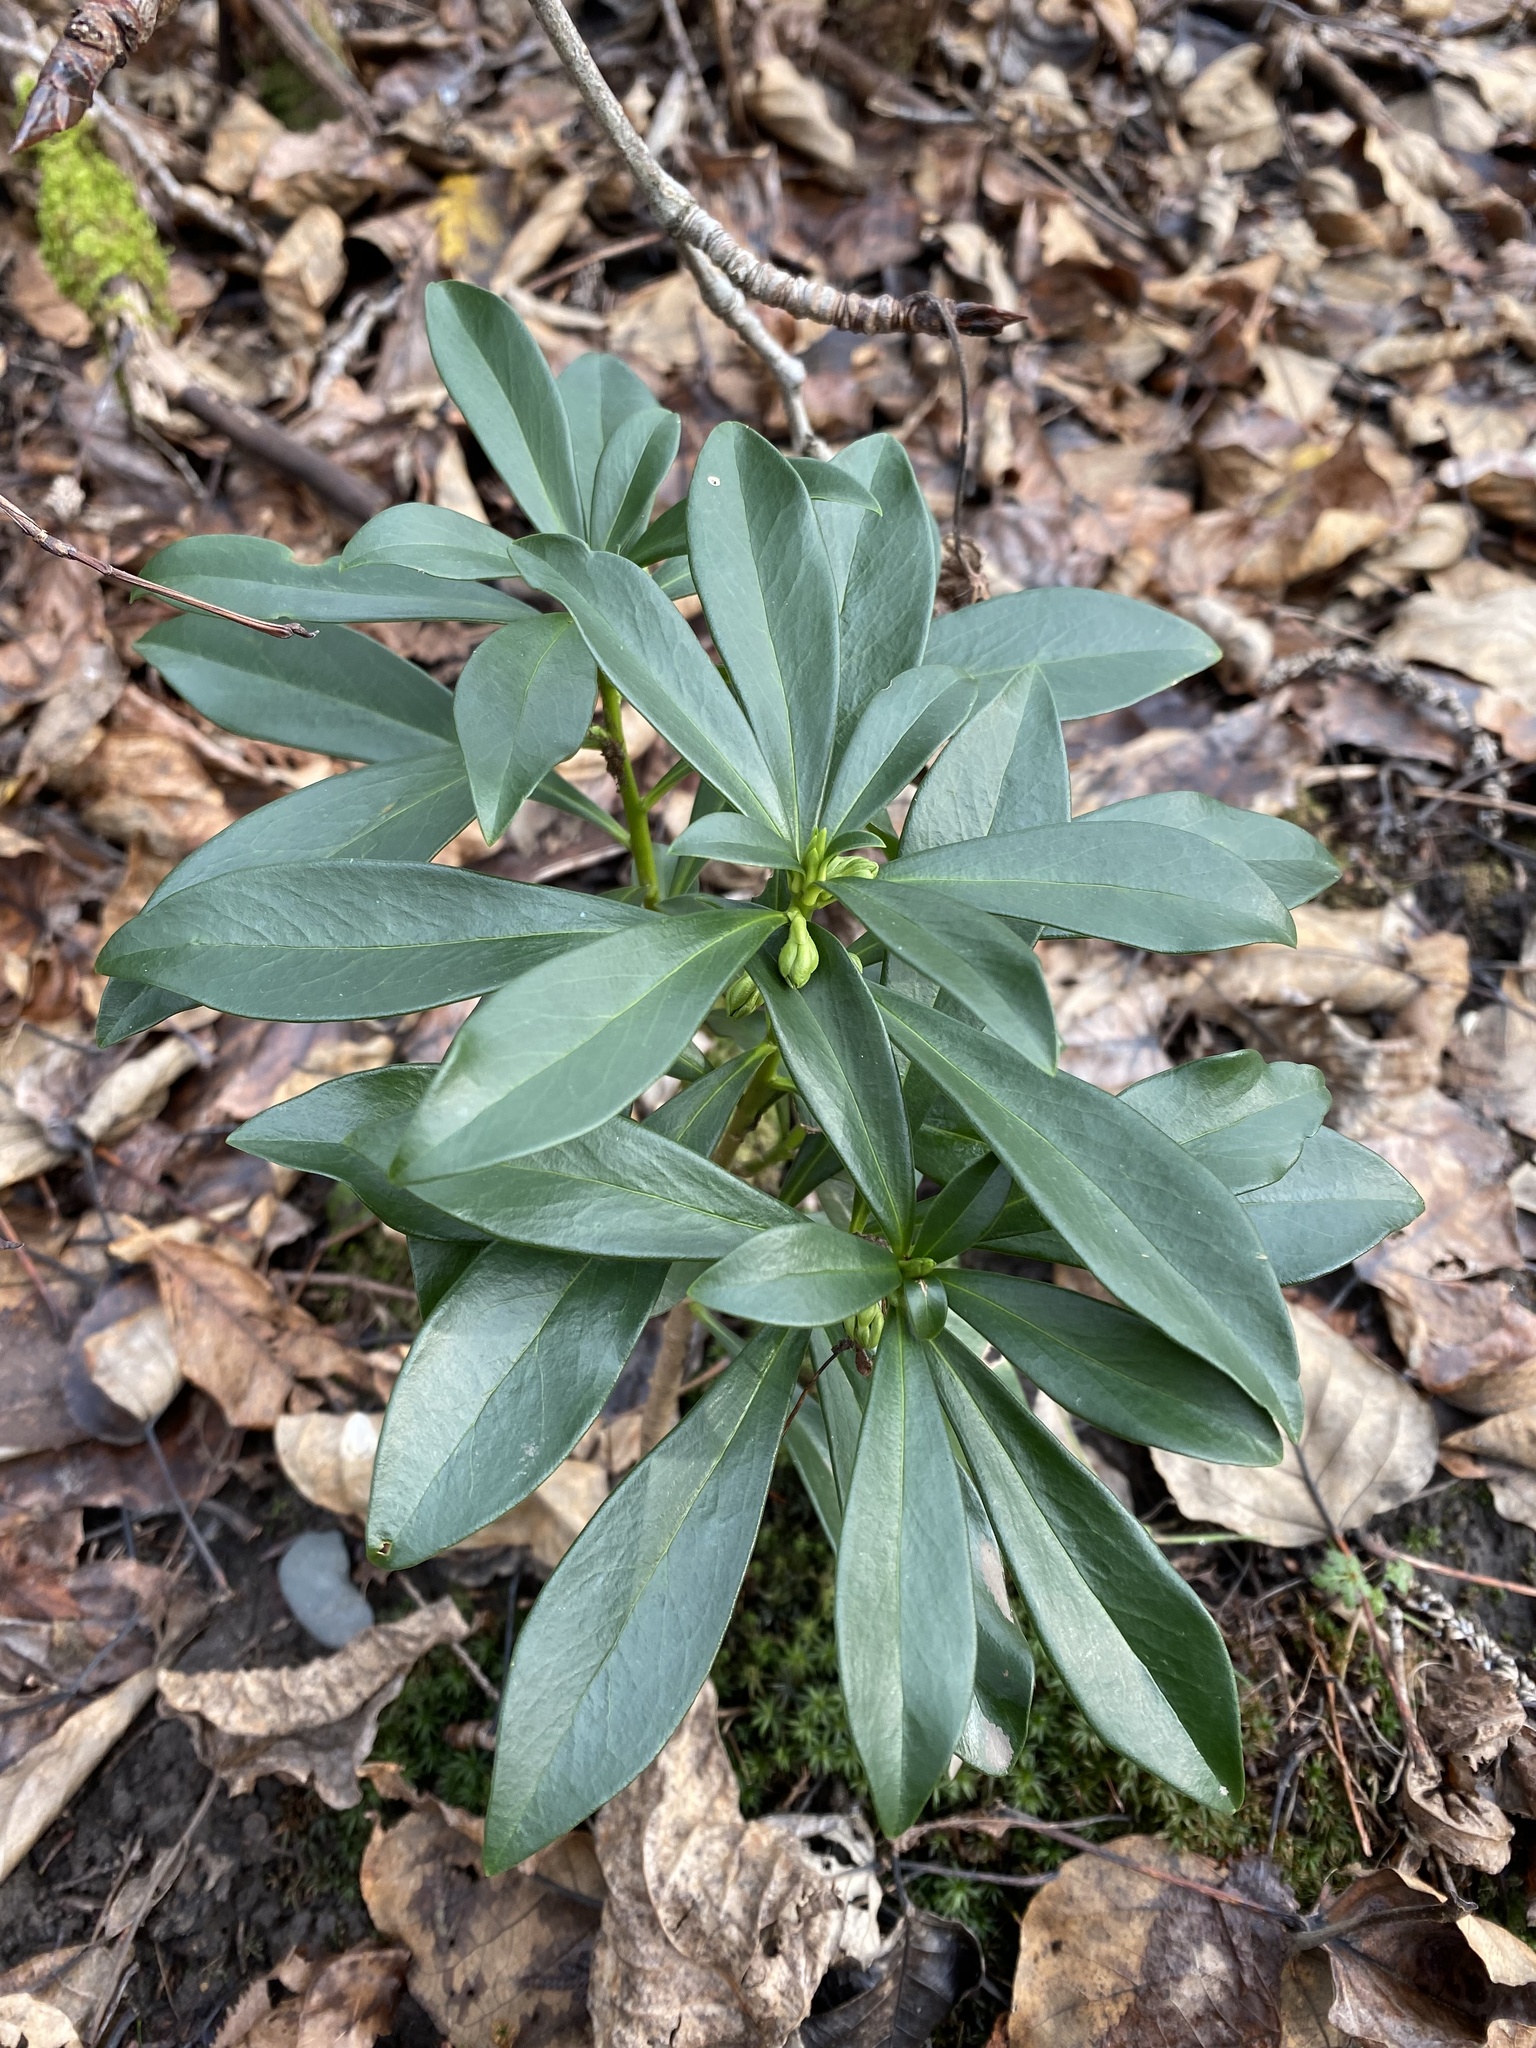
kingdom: Plantae
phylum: Tracheophyta
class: Magnoliopsida
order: Malvales
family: Thymelaeaceae
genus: Daphne
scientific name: Daphne laureola
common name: Spurge-laurel
